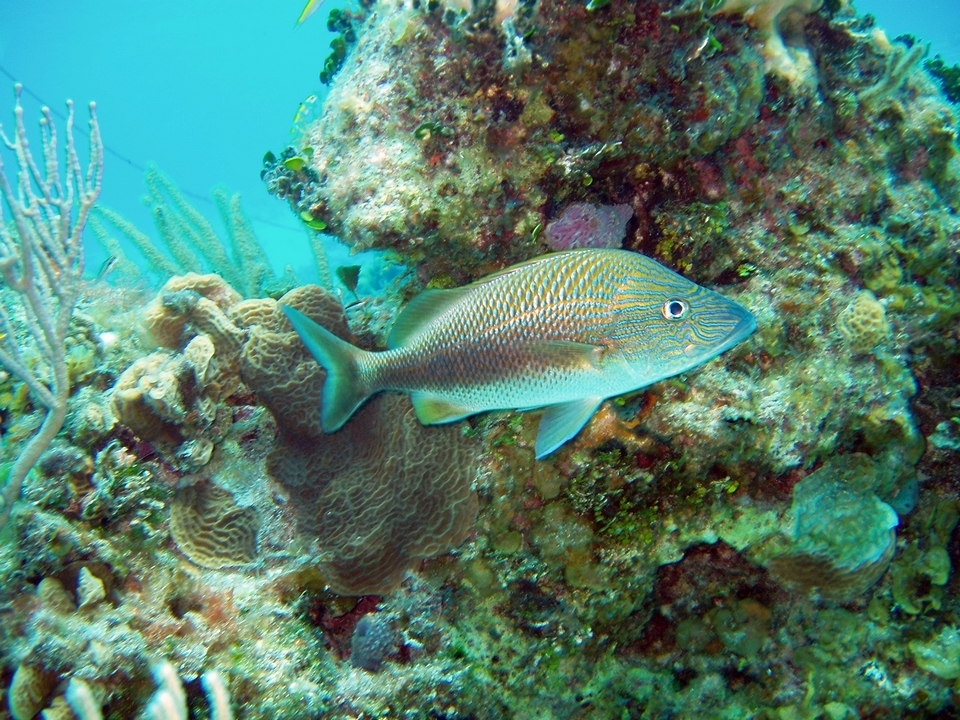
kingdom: Animalia
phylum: Chordata
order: Perciformes
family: Haemulidae
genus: Haemulon
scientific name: Haemulon plumierii
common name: White grunt
